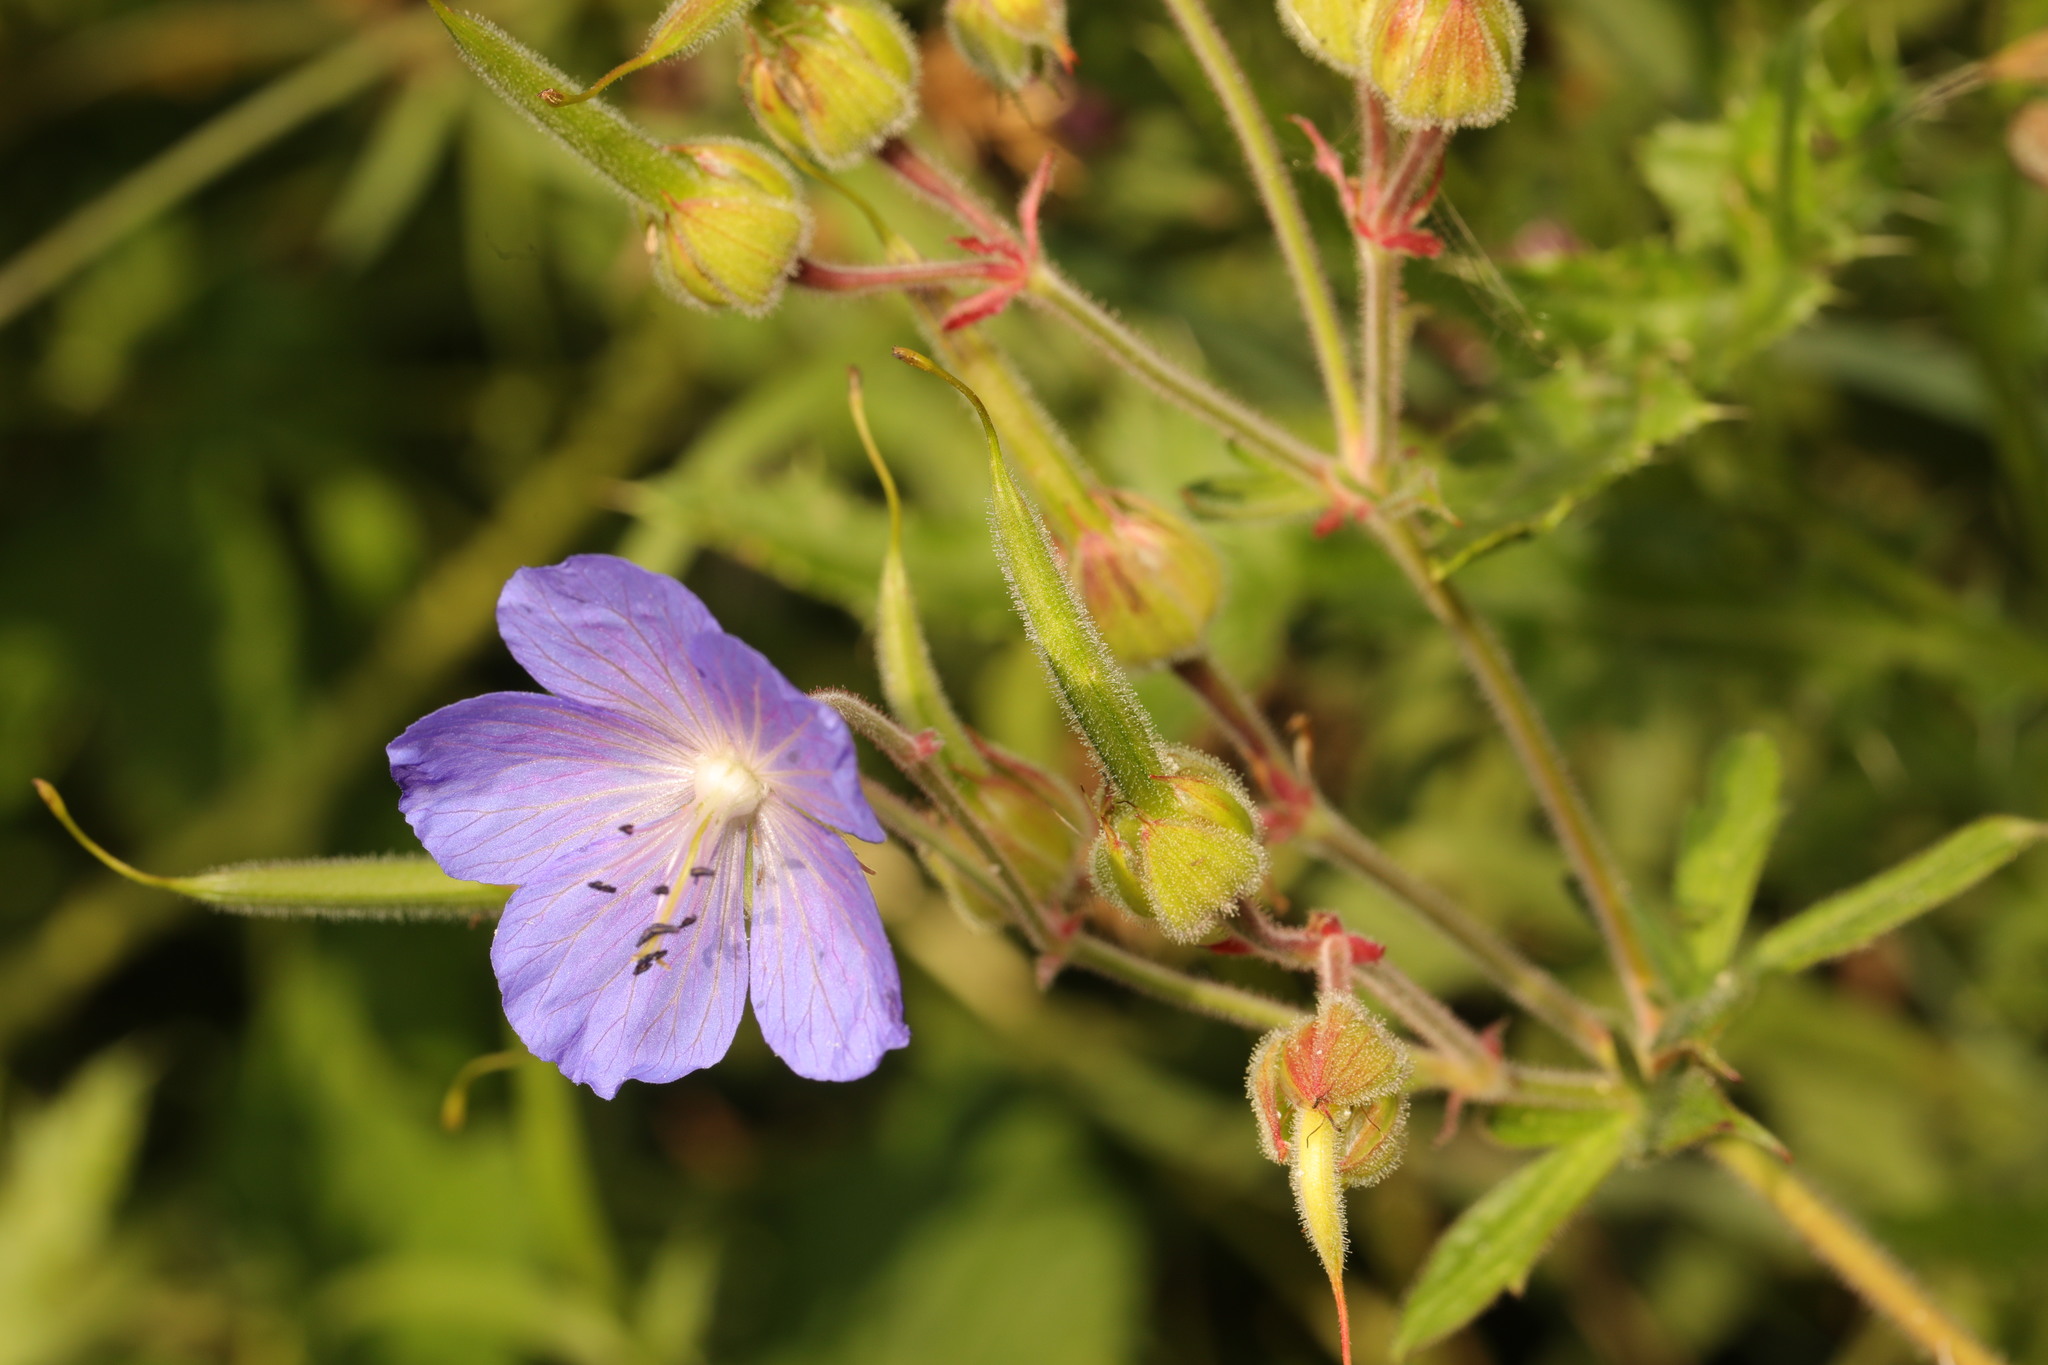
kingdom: Plantae
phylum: Tracheophyta
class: Magnoliopsida
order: Geraniales
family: Geraniaceae
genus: Geranium
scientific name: Geranium pratense
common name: Meadow crane's-bill
